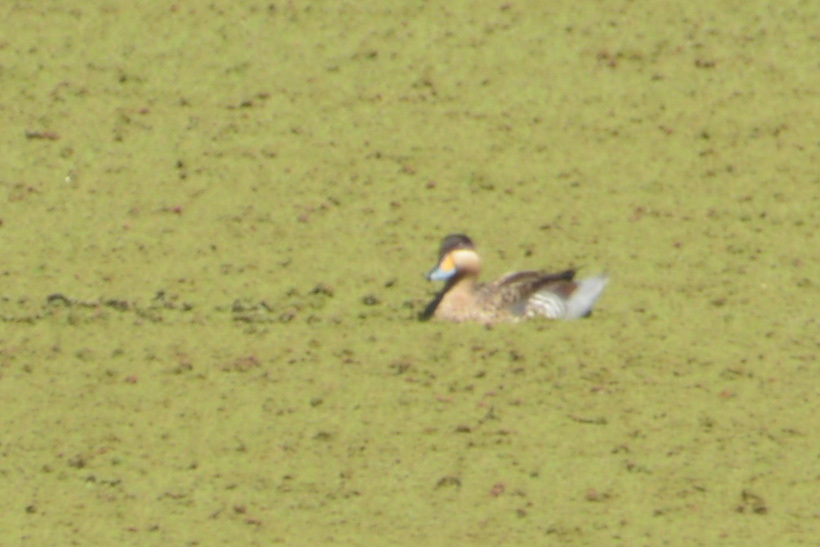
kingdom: Animalia
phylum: Chordata
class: Aves
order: Anseriformes
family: Anatidae
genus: Spatula
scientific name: Spatula versicolor
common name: Silver teal
